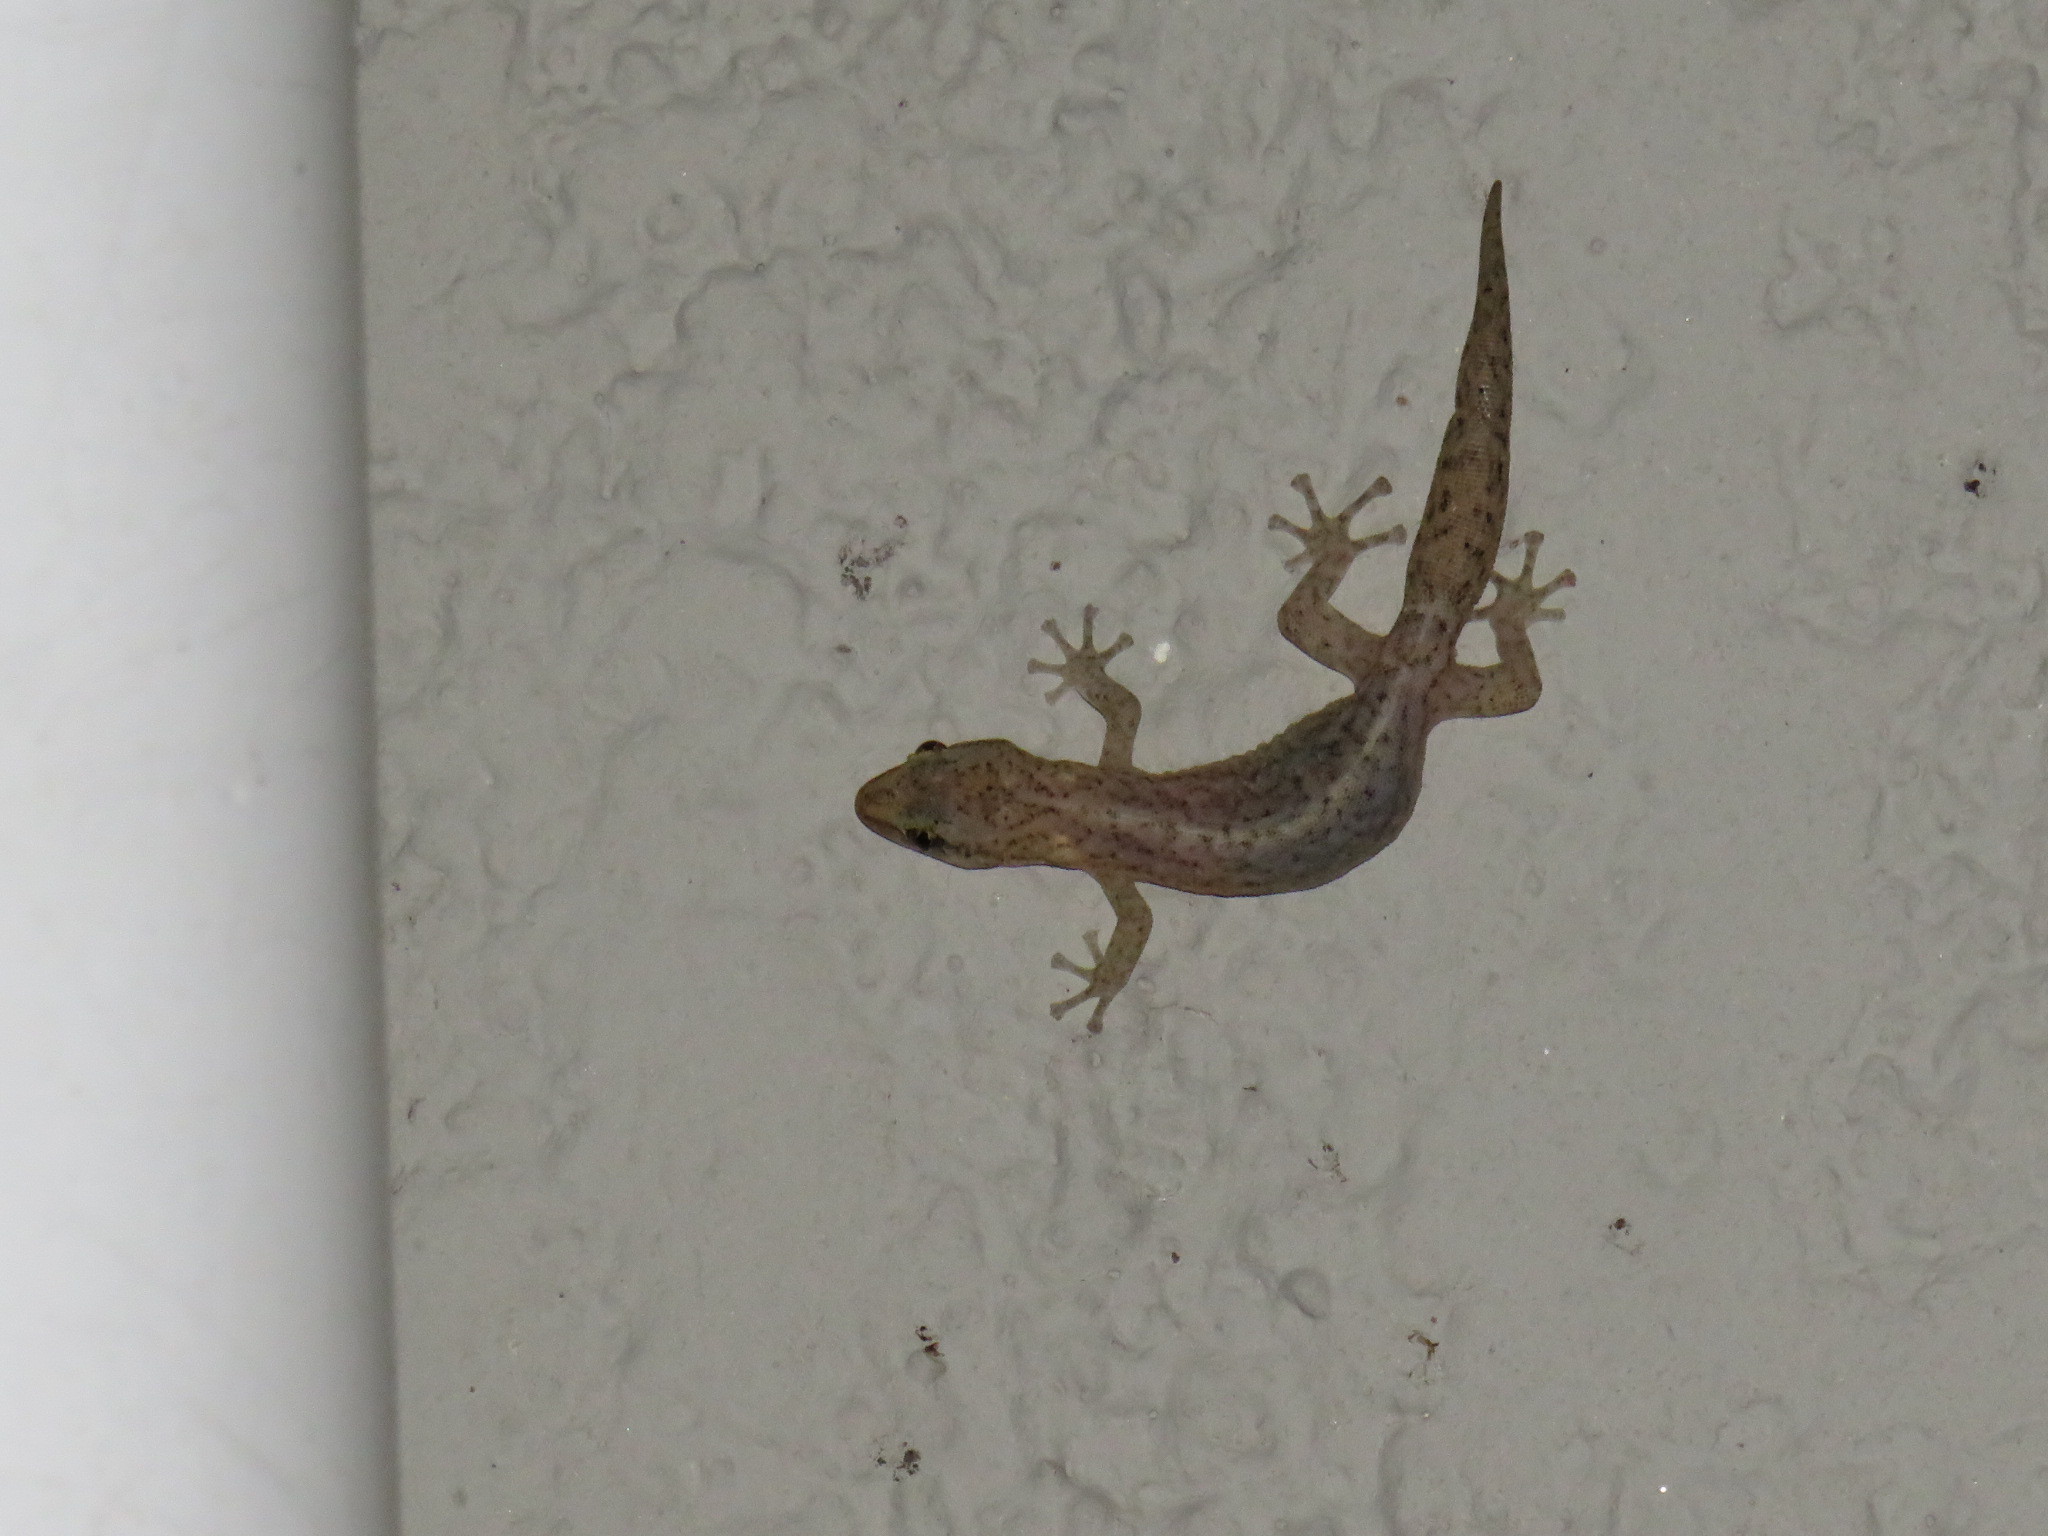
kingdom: Animalia
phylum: Chordata
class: Squamata
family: Gekkonidae
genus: Afrogecko
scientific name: Afrogecko porphyreus
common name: Marbled leaf-toed gecko
